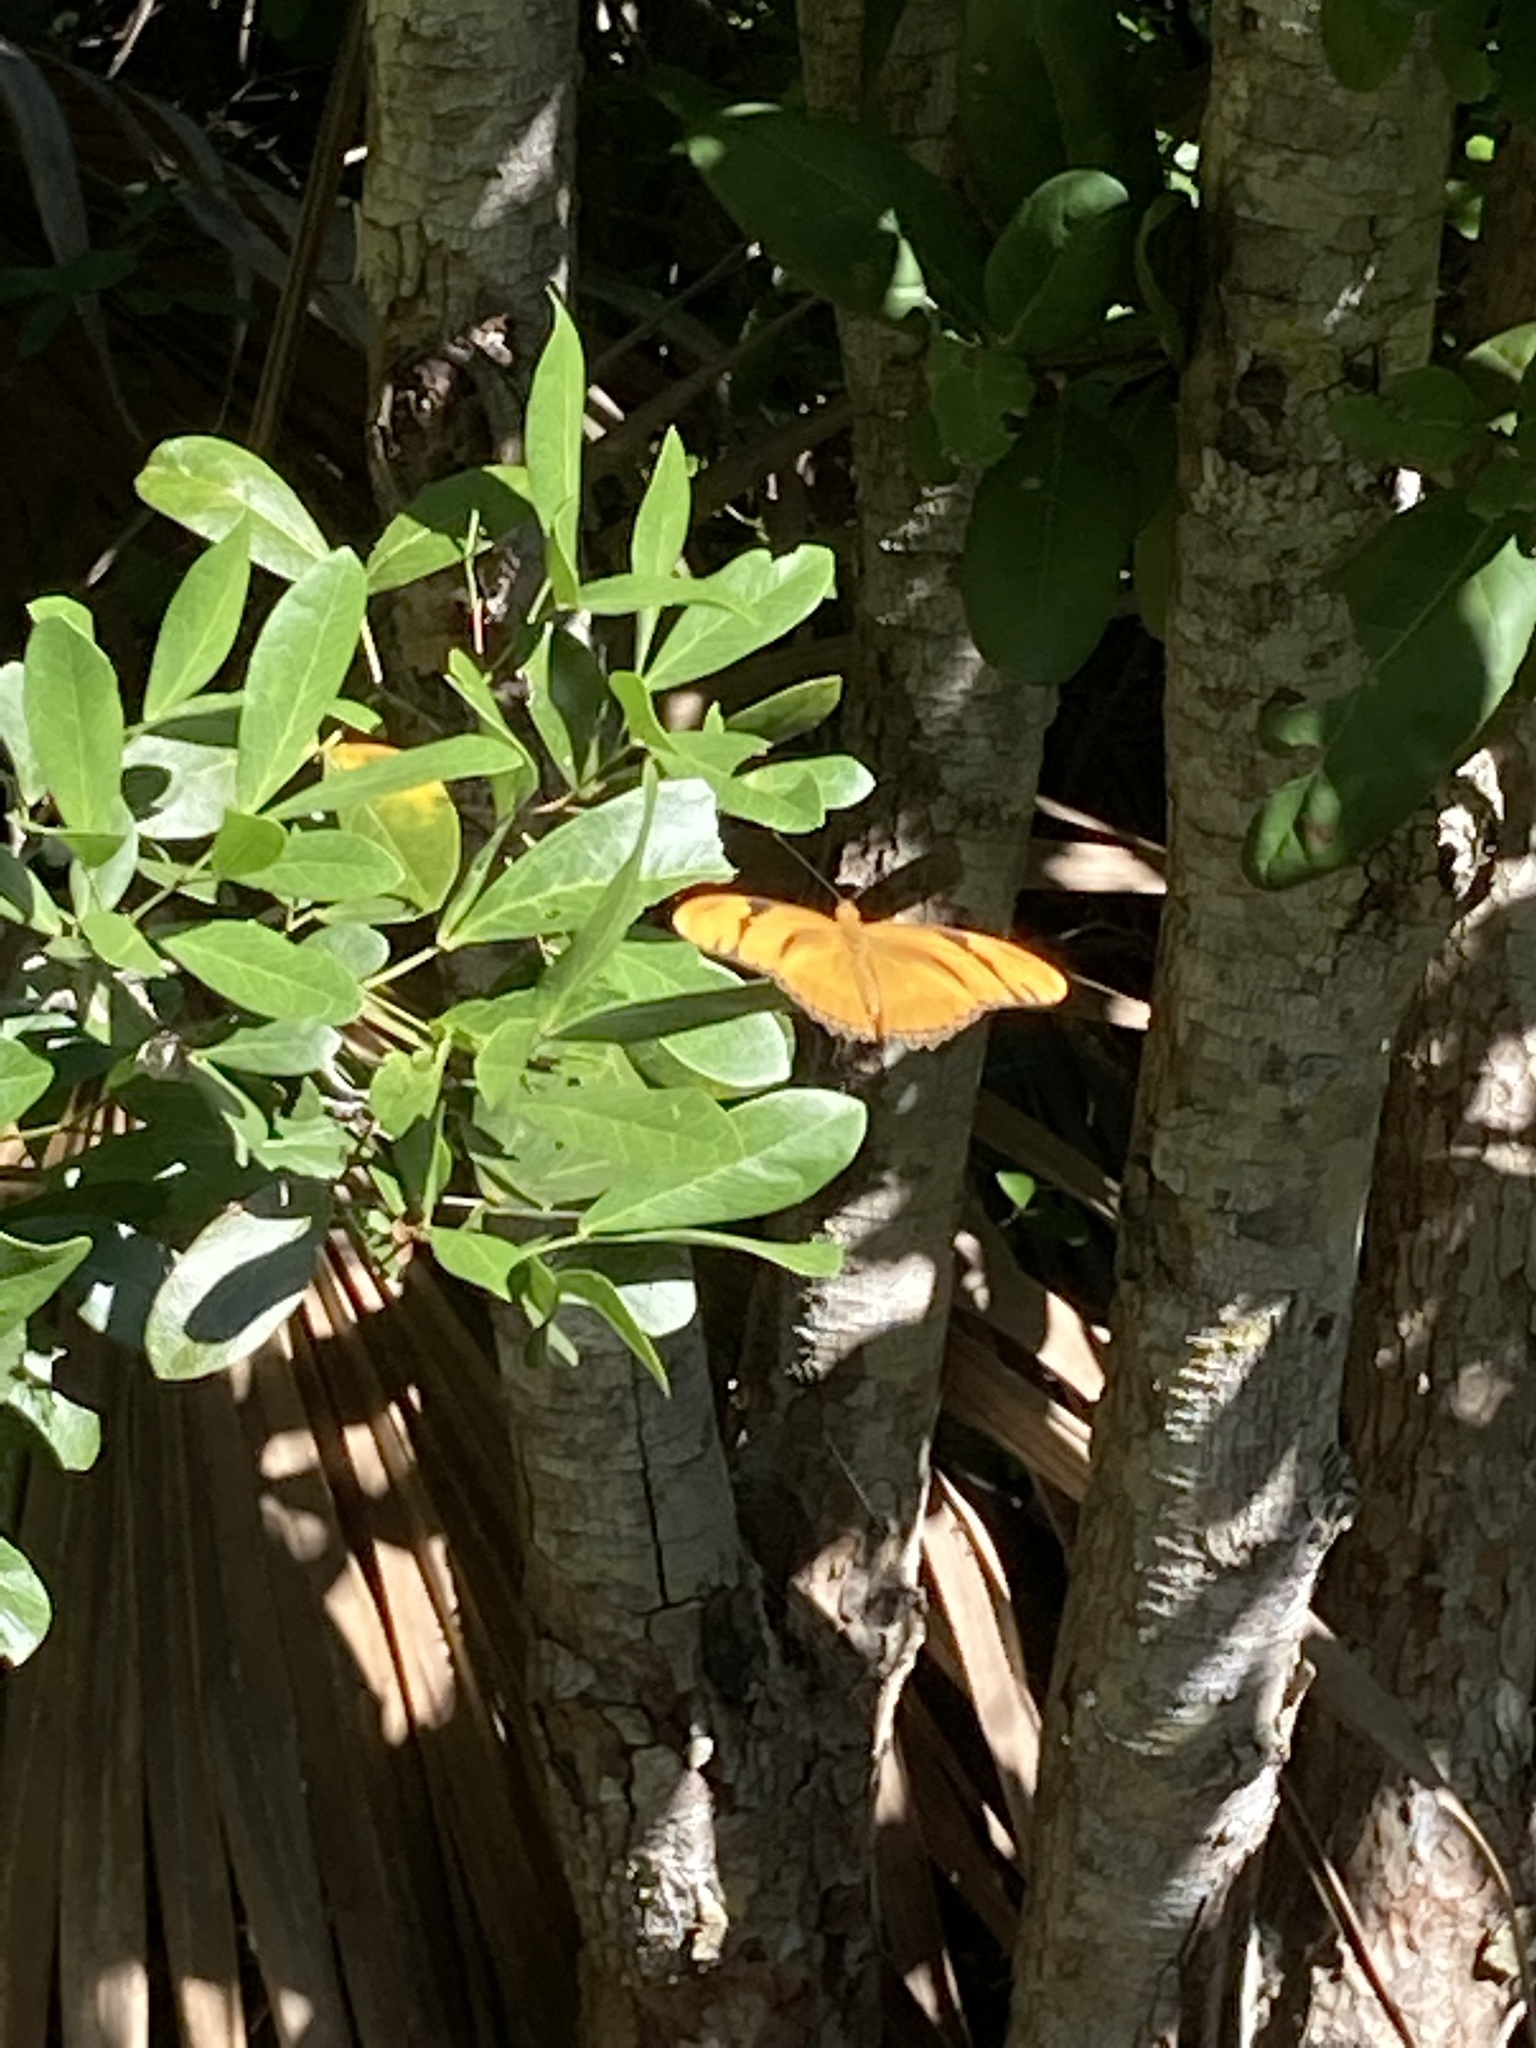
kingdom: Animalia
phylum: Arthropoda
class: Insecta
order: Lepidoptera
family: Nymphalidae
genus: Dryas
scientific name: Dryas iulia
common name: Flambeau
